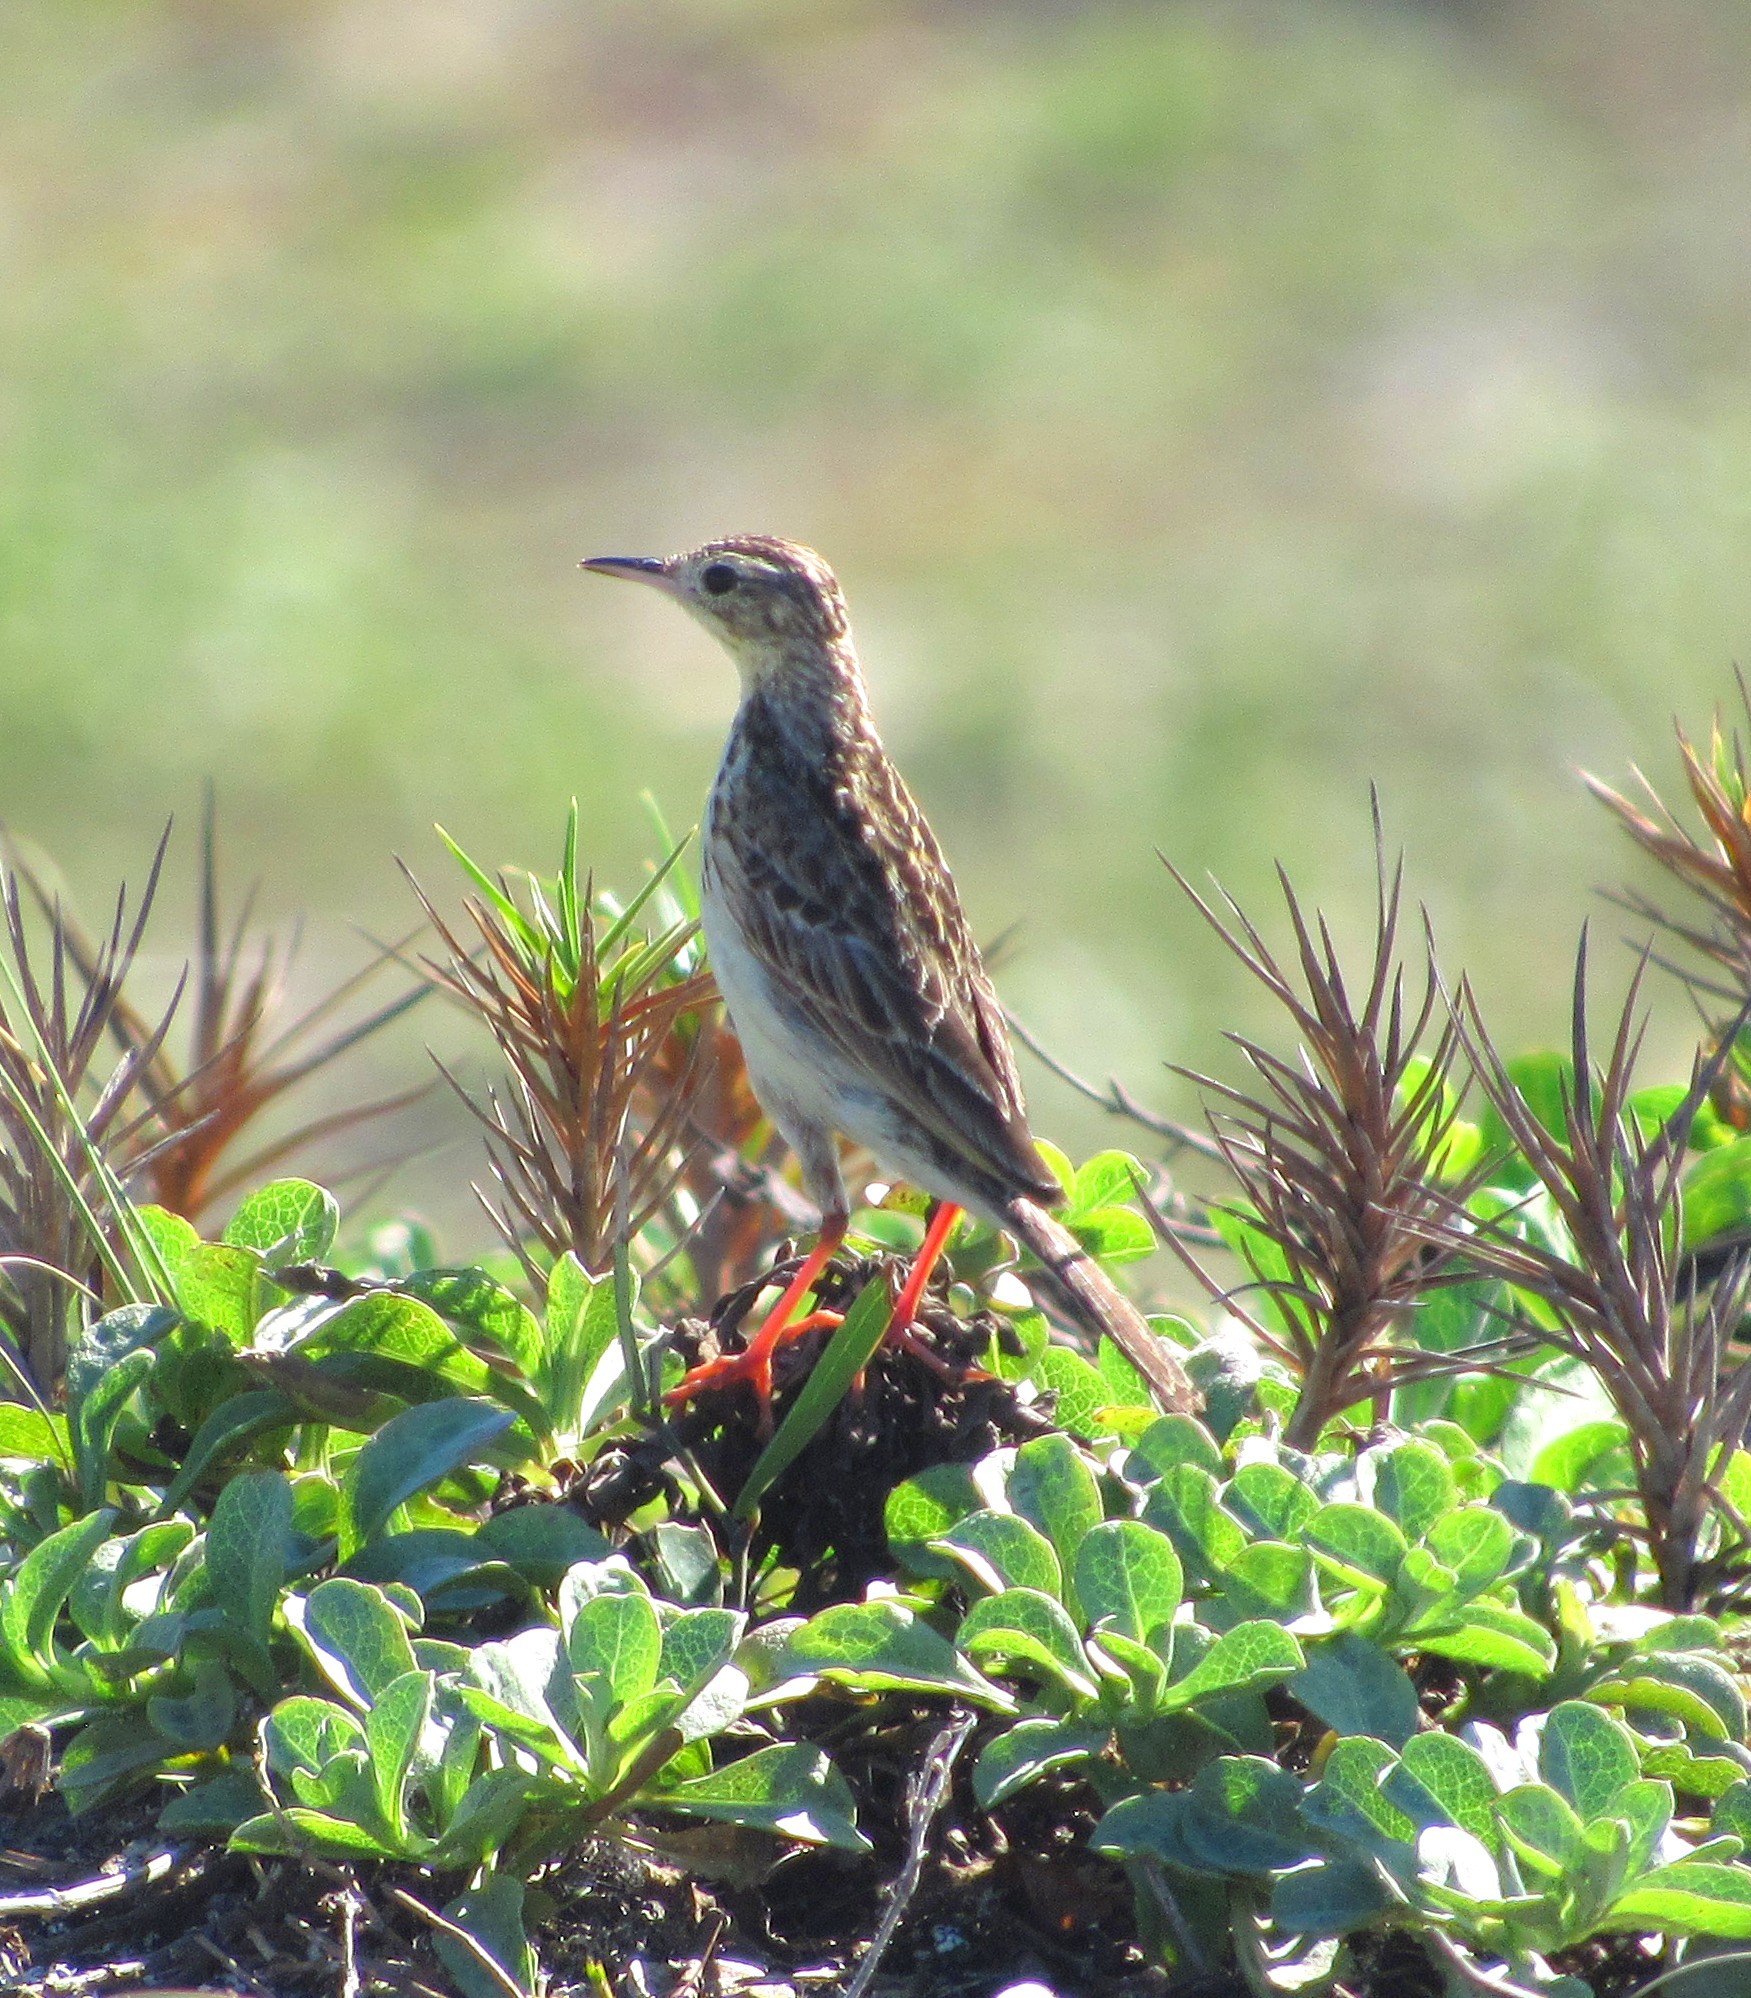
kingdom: Animalia
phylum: Chordata
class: Aves
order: Passeriformes
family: Motacillidae
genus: Anthus
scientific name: Anthus chii
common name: Yellowish pipit
